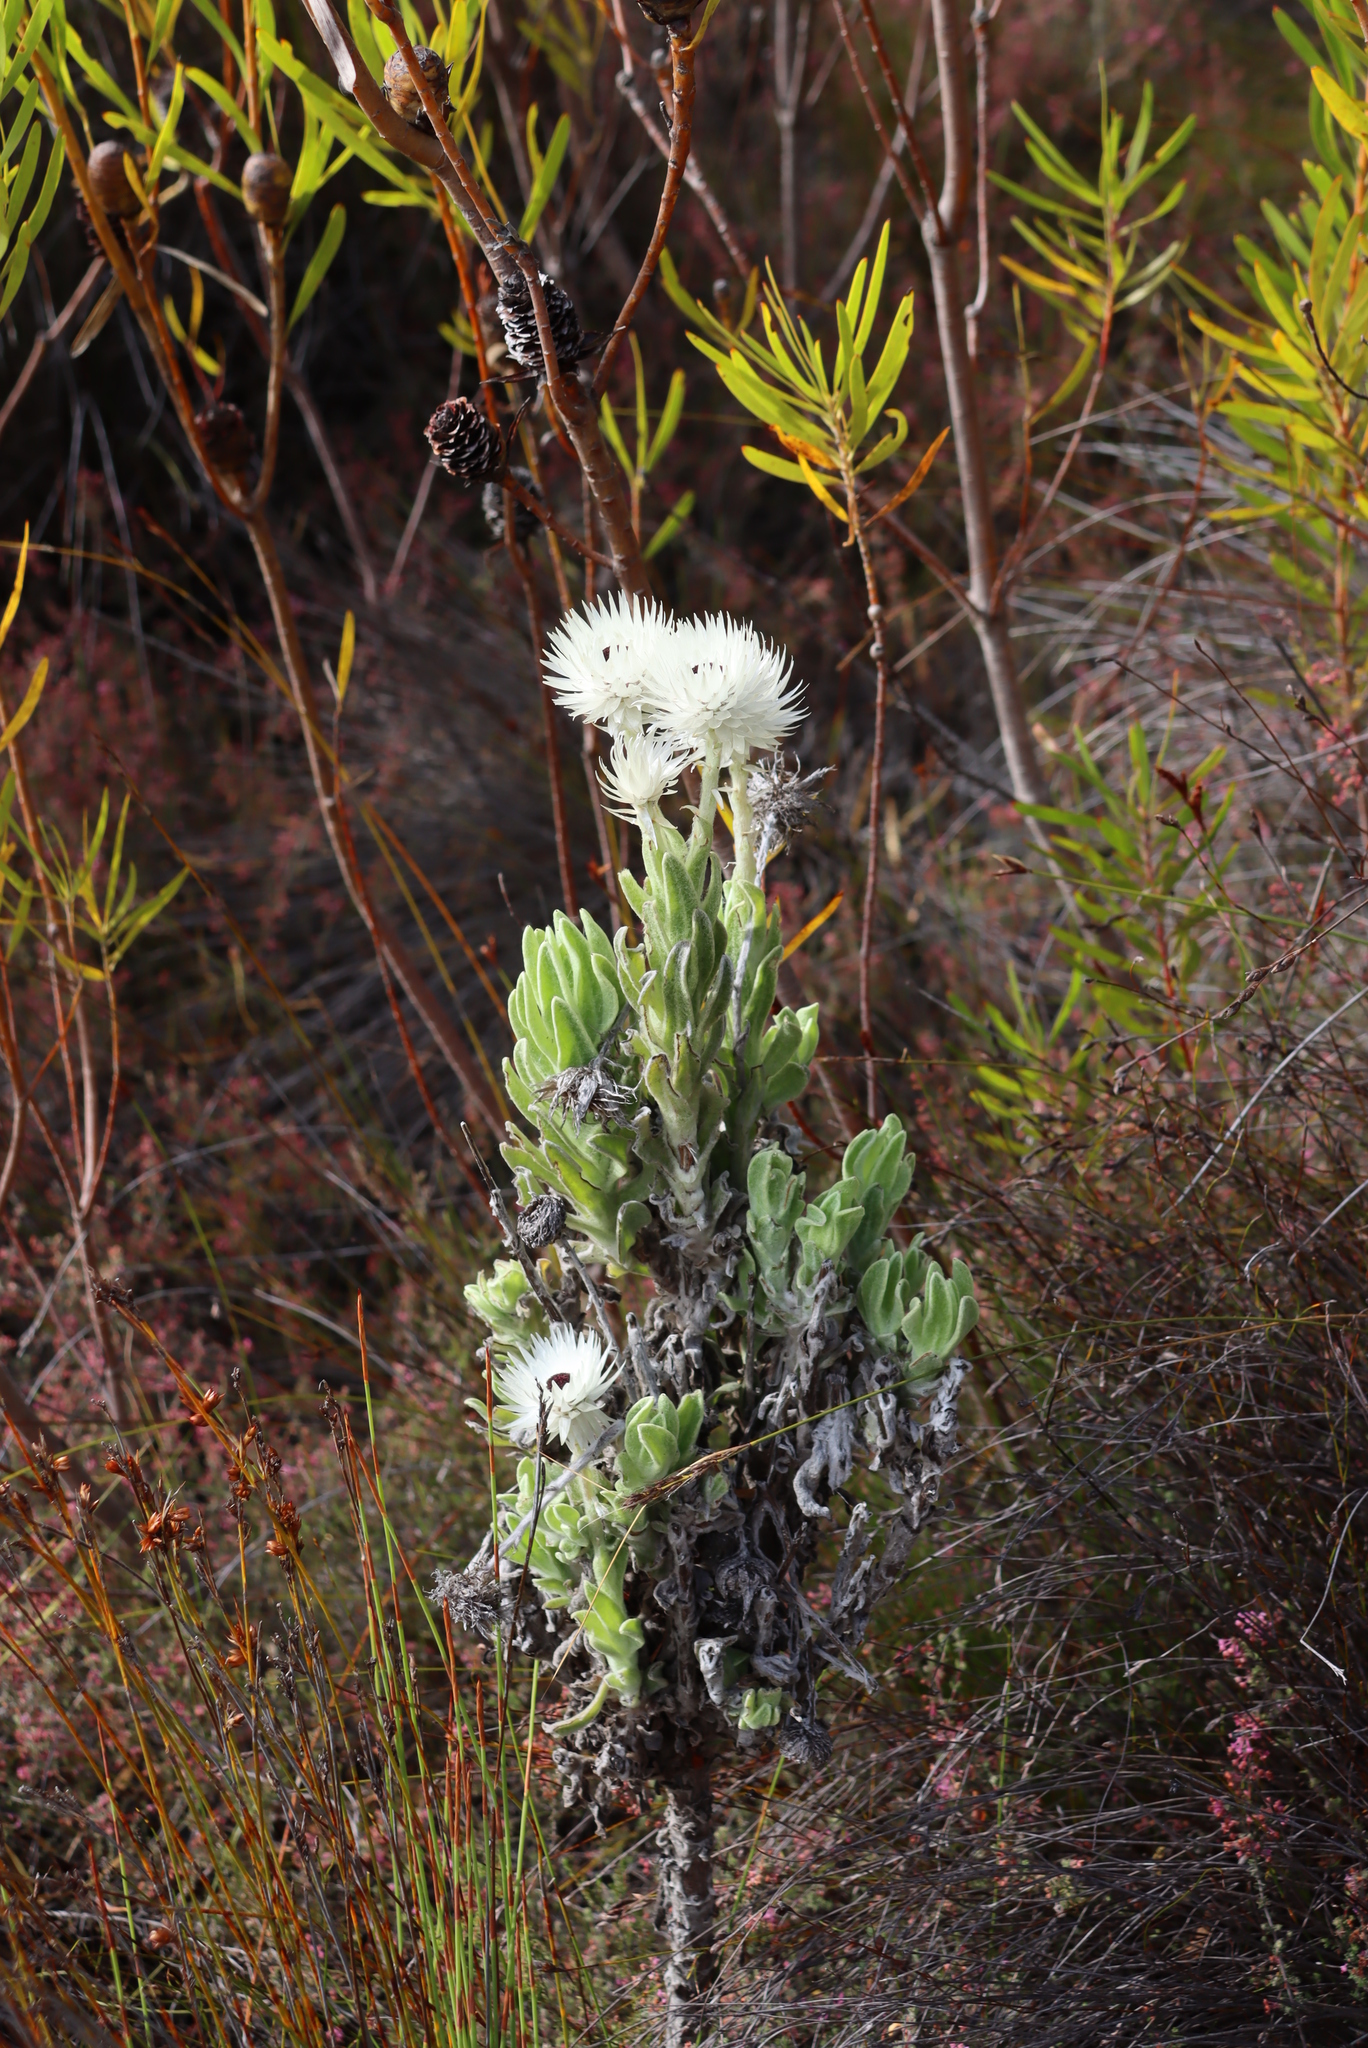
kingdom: Plantae
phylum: Tracheophyta
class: Magnoliopsida
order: Asterales
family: Asteraceae
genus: Syncarpha
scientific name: Syncarpha vestita
